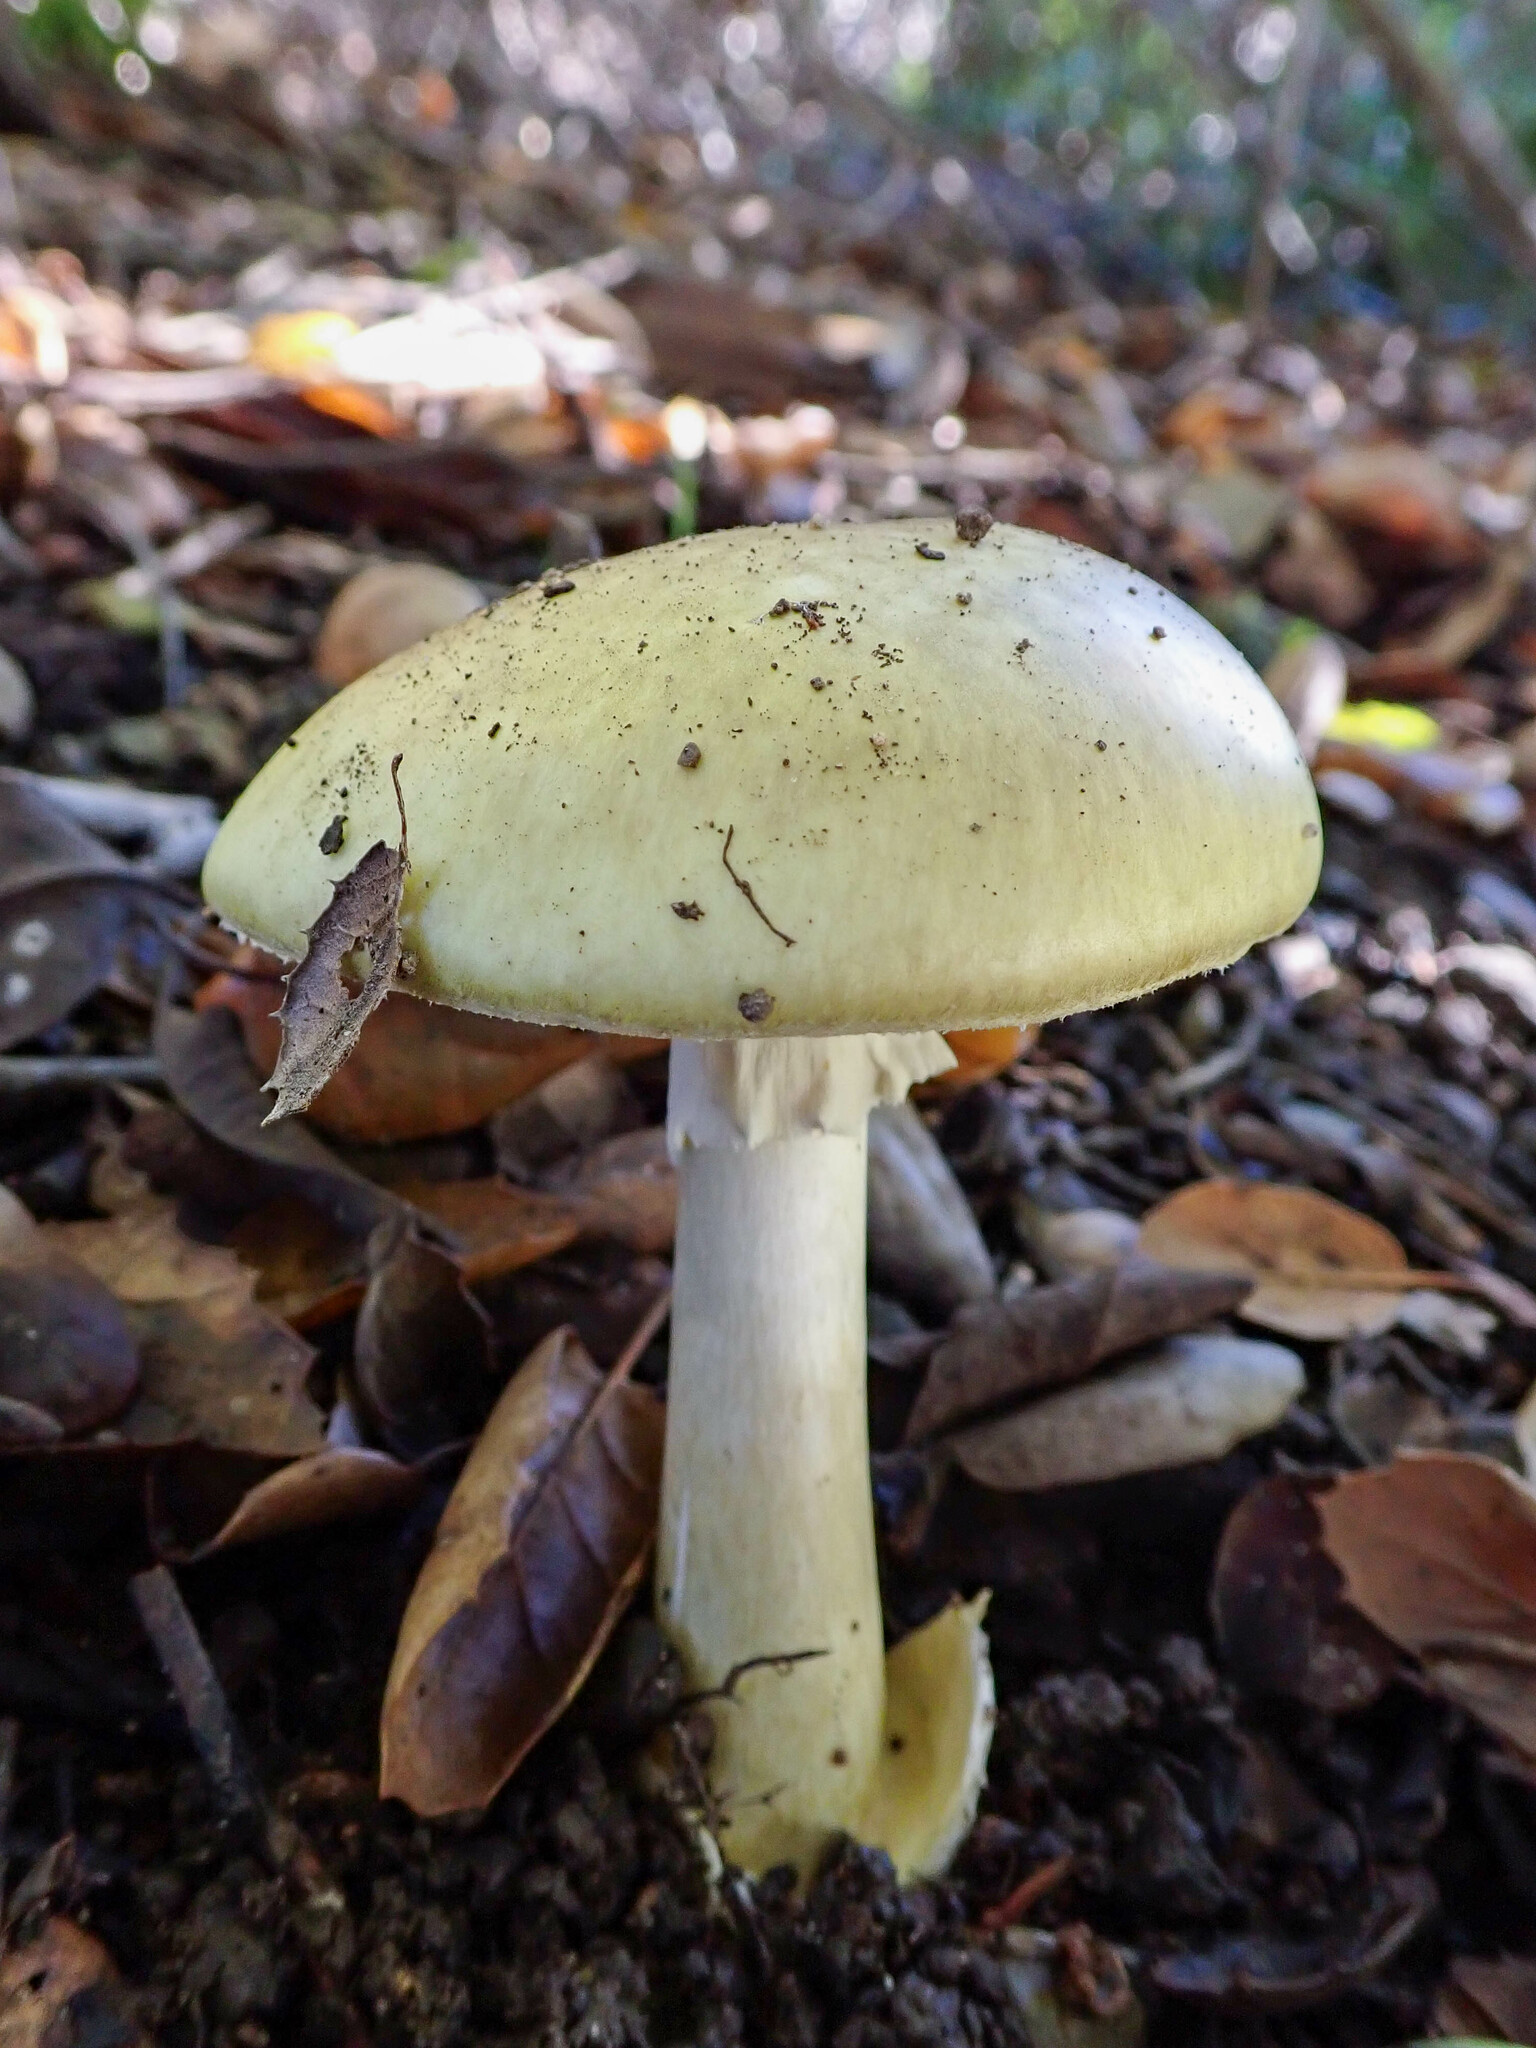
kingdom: Fungi
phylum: Basidiomycota
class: Agaricomycetes
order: Agaricales
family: Amanitaceae
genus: Amanita
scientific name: Amanita phalloides
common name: Death cap
